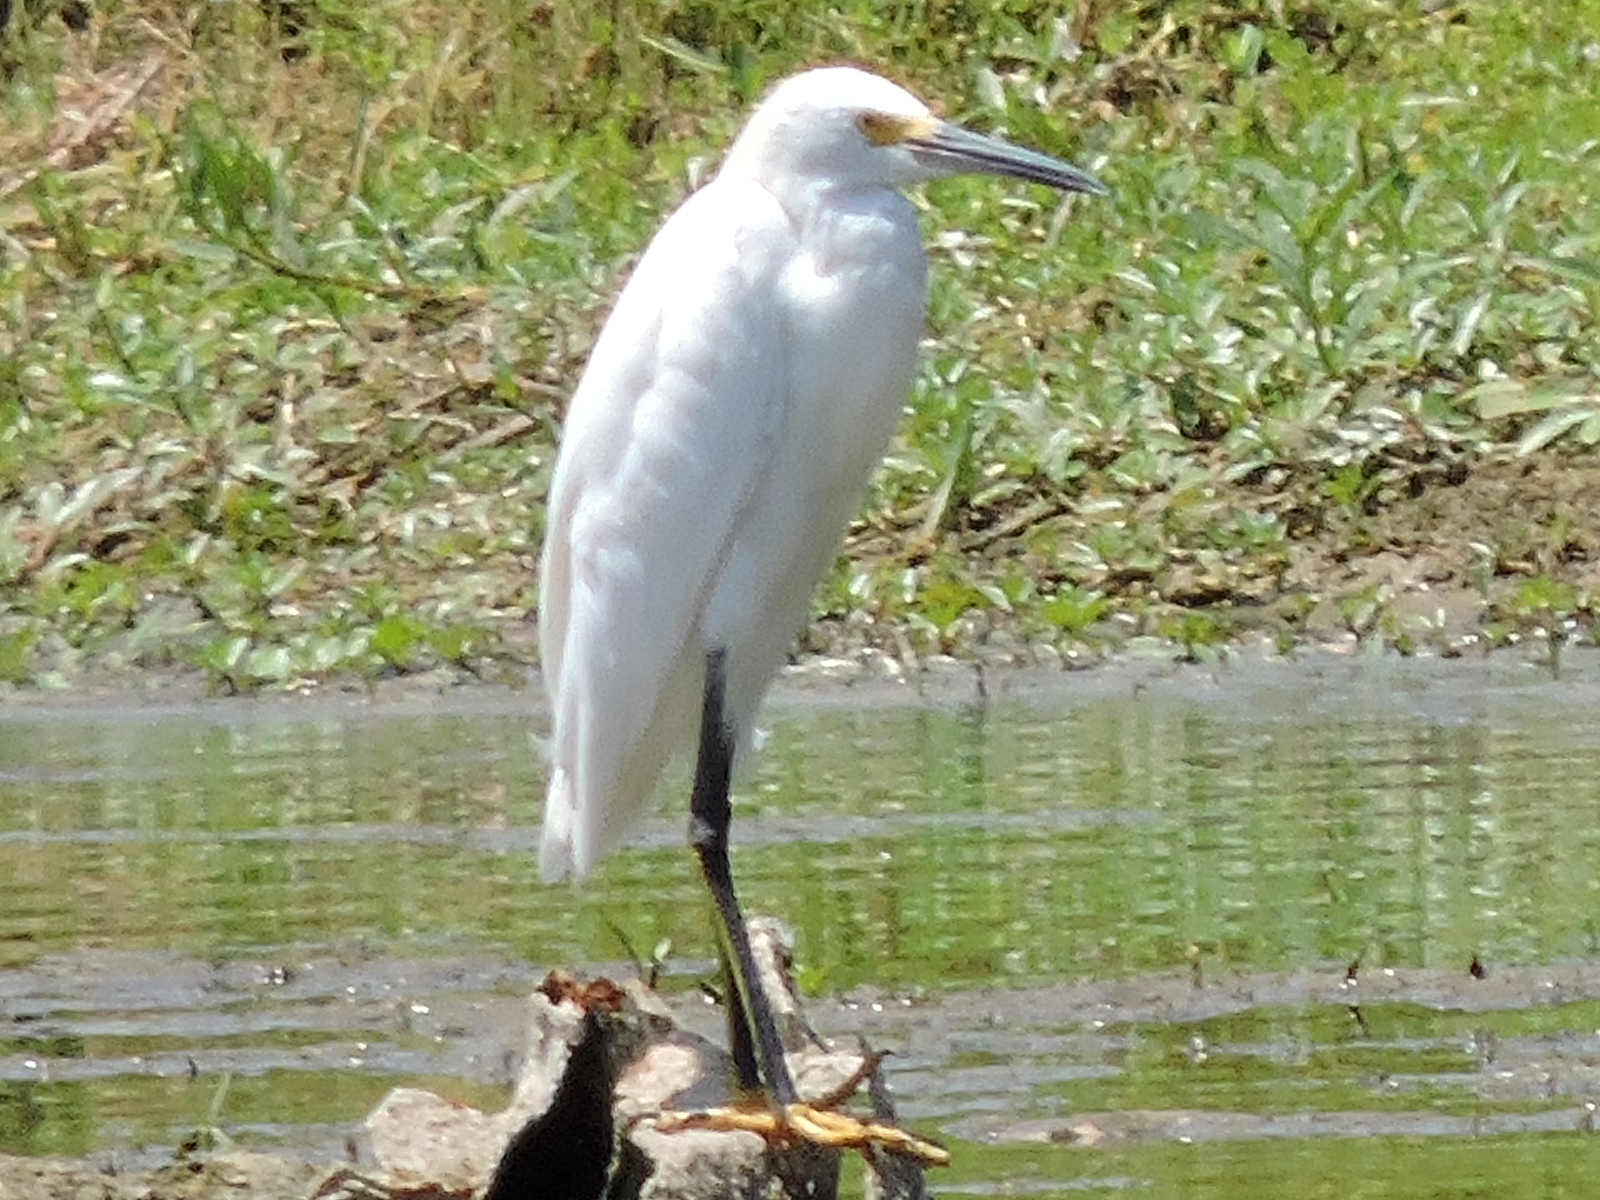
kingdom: Animalia
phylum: Chordata
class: Aves
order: Pelecaniformes
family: Ardeidae
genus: Egretta
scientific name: Egretta thula
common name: Snowy egret
